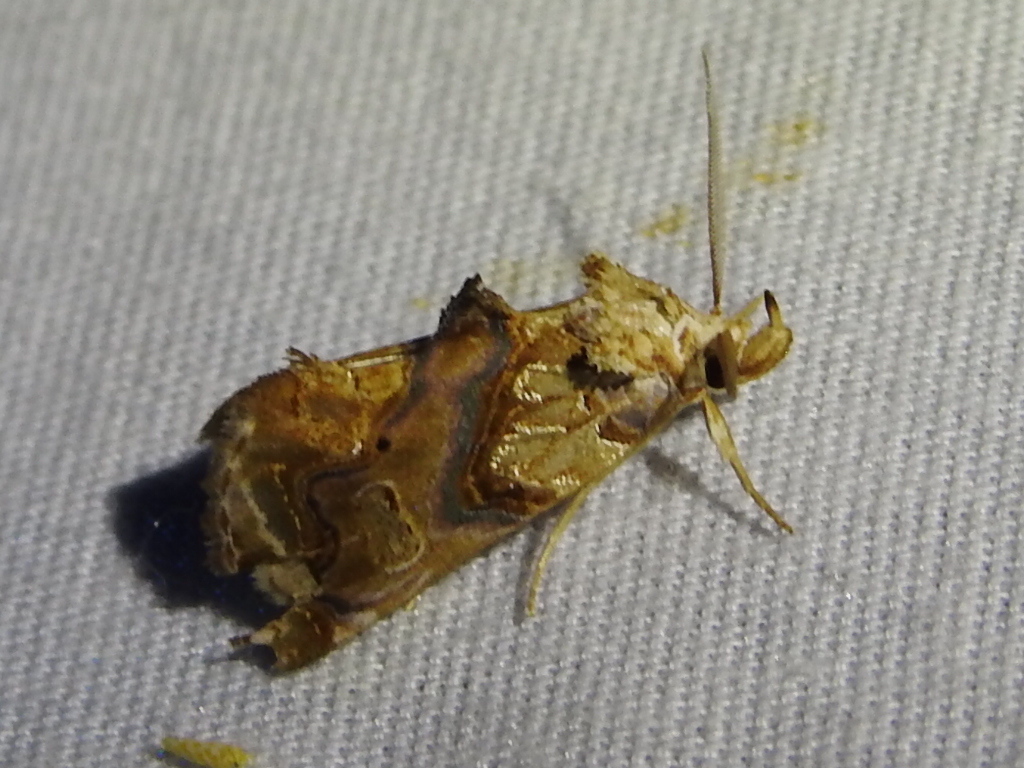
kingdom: Animalia
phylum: Arthropoda
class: Insecta
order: Lepidoptera
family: Erebidae
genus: Plusiodonta
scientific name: Plusiodonta compressipalpis
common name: Moonseed moth
